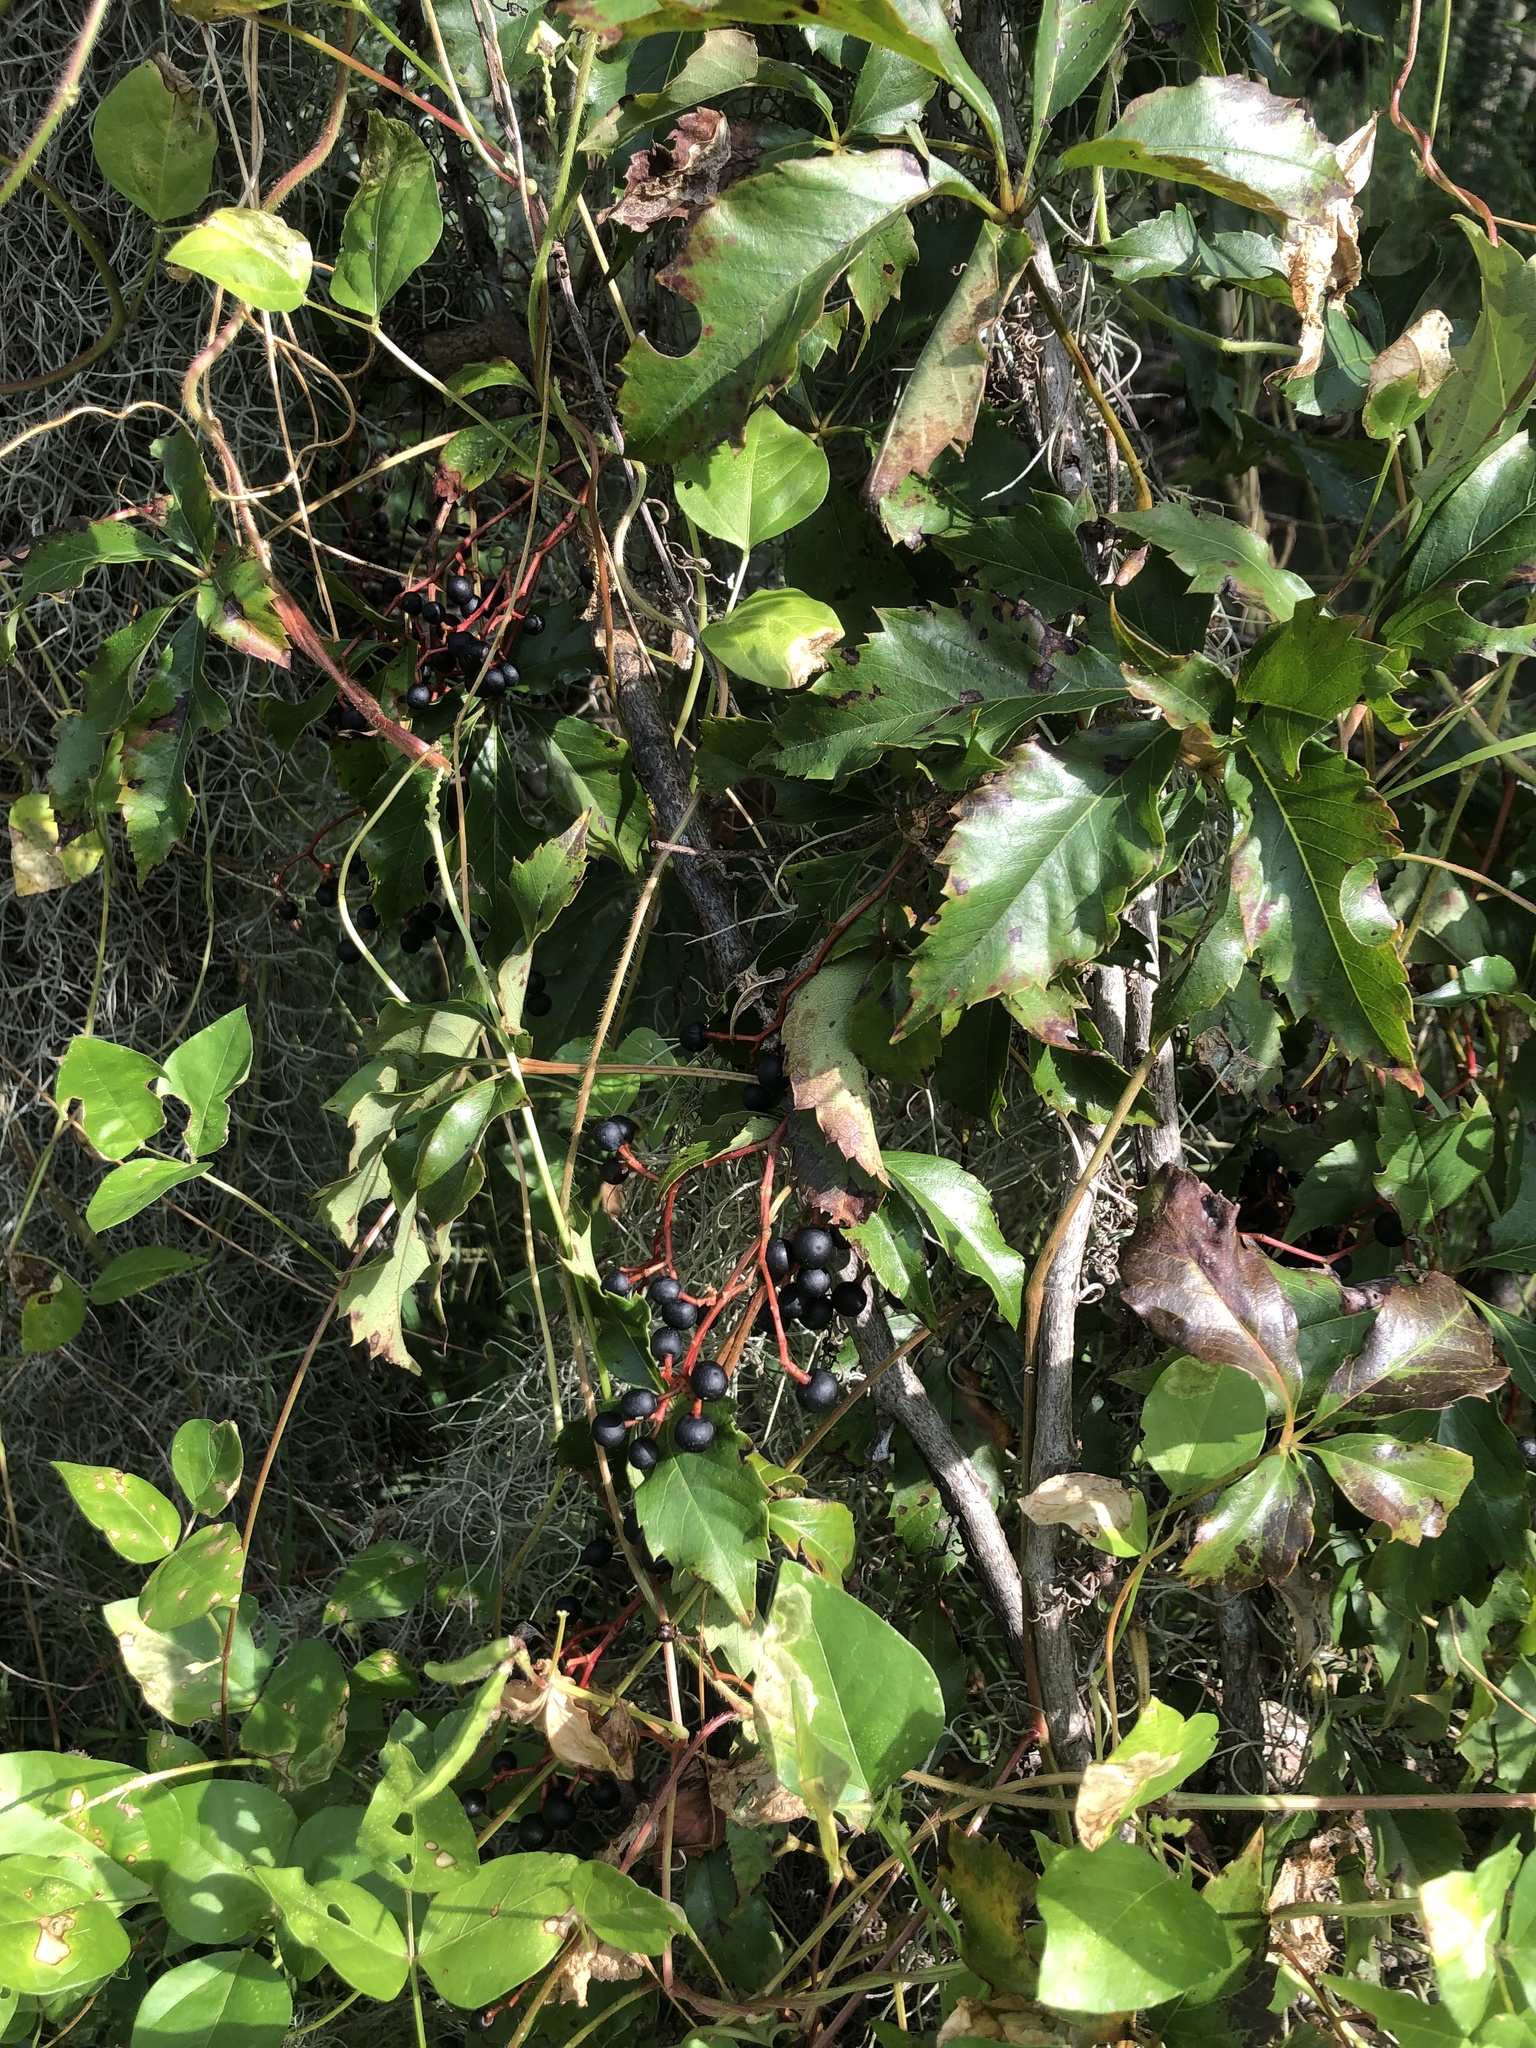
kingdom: Plantae
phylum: Tracheophyta
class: Magnoliopsida
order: Vitales
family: Vitaceae
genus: Parthenocissus
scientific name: Parthenocissus quinquefolia
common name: Virginia-creeper
